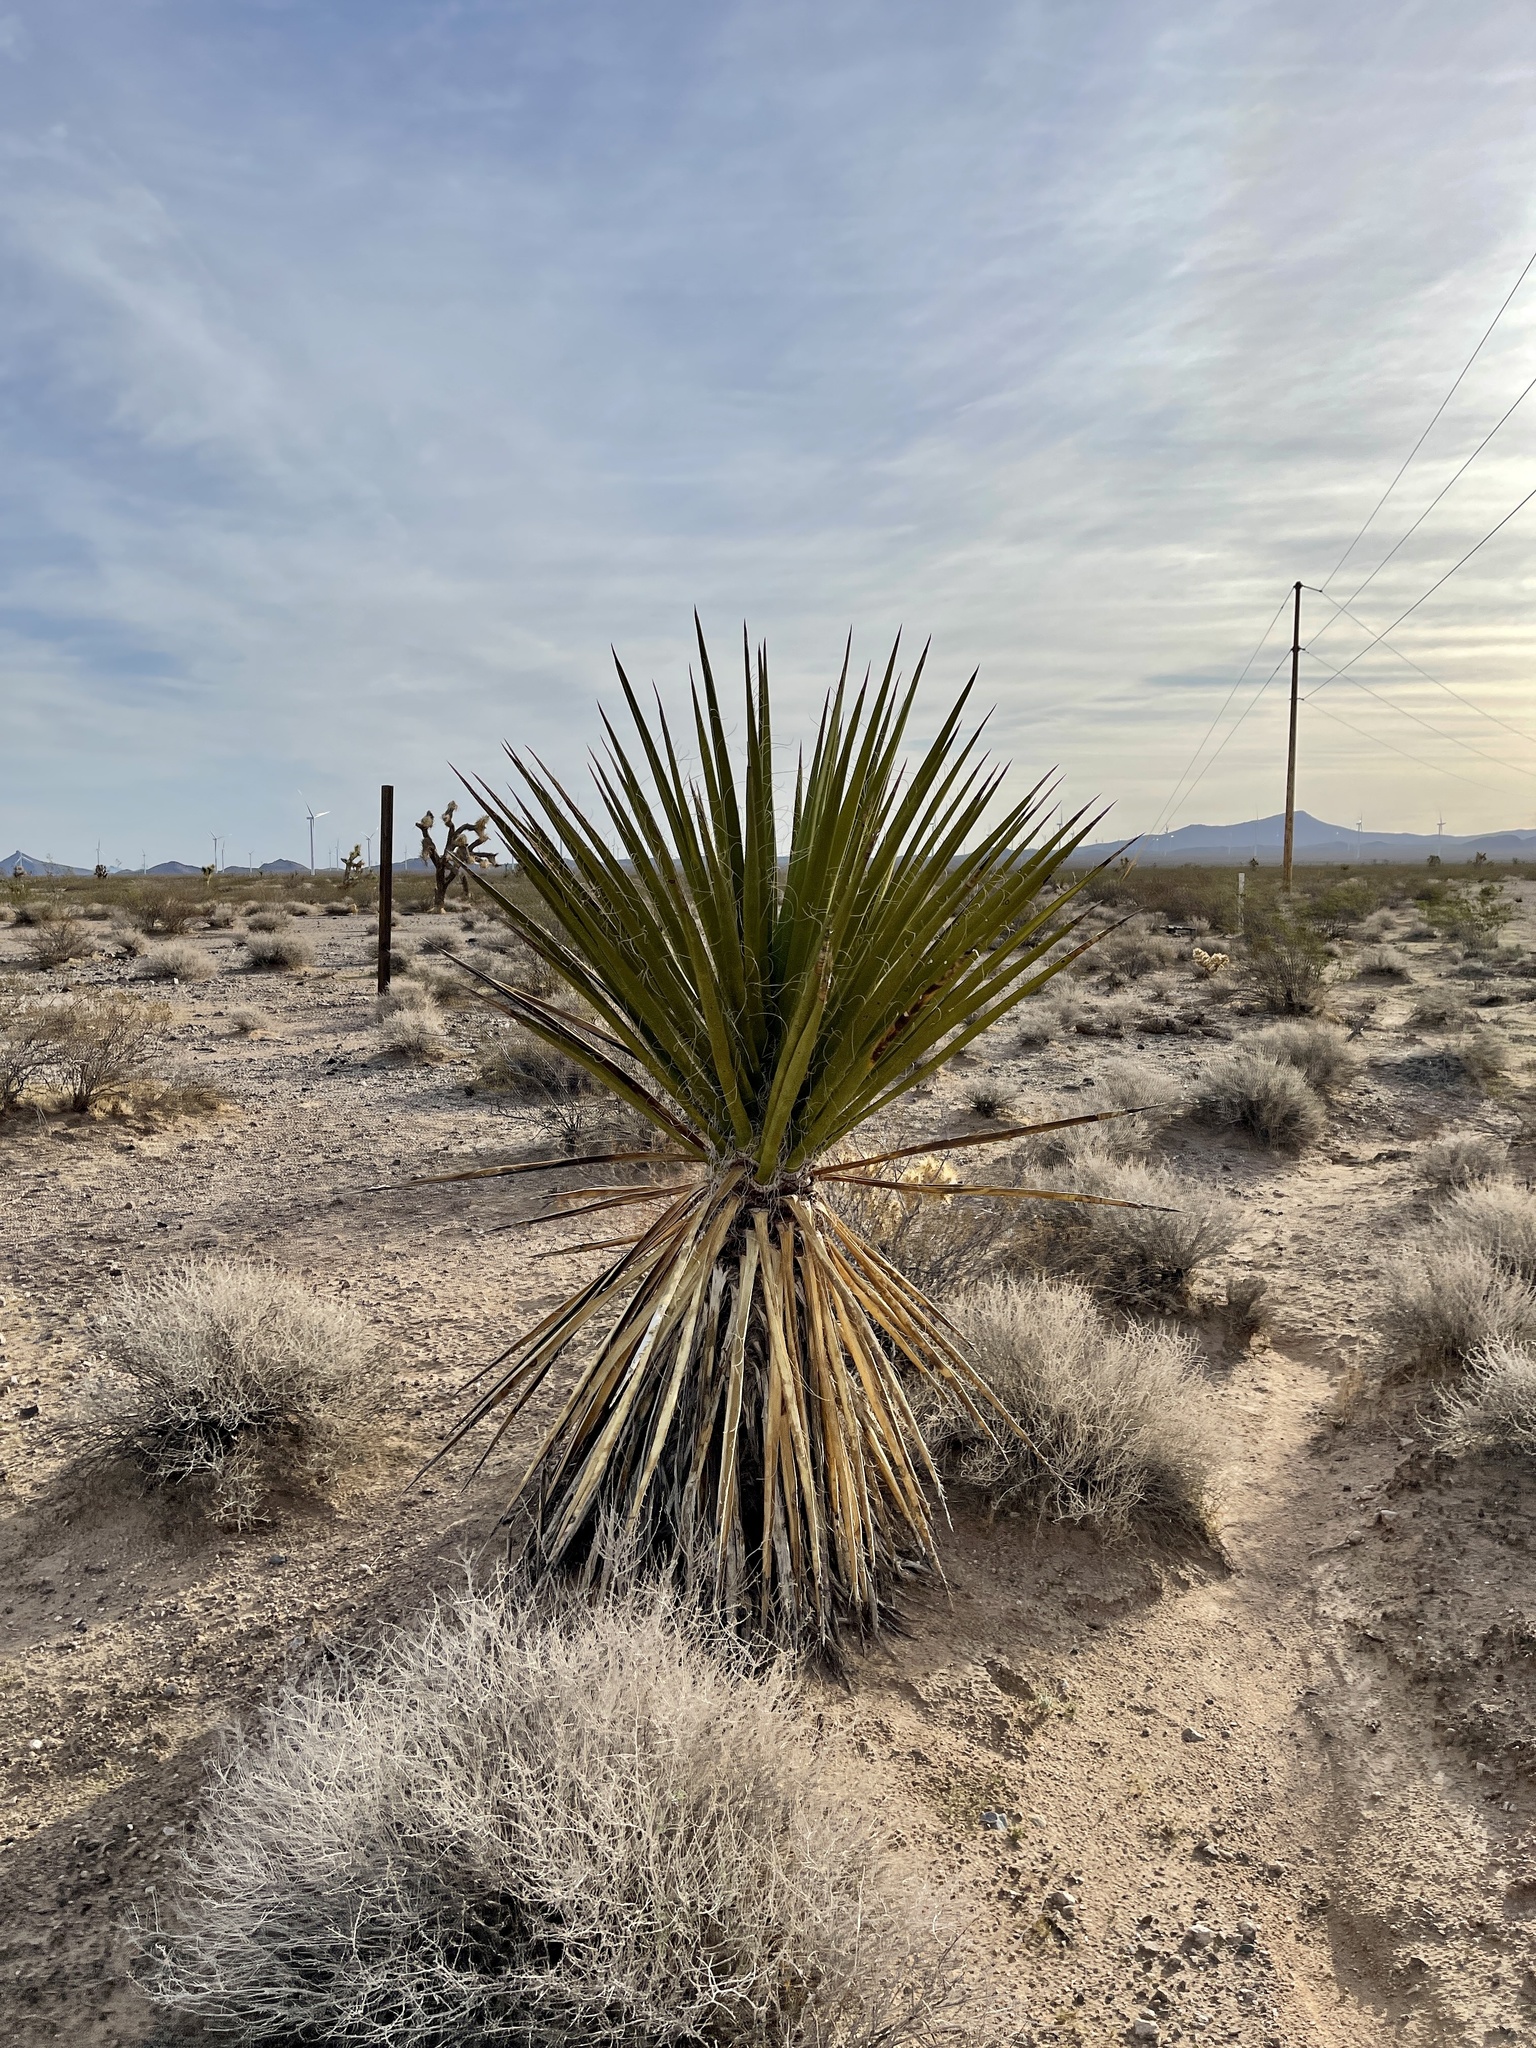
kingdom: Plantae
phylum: Tracheophyta
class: Liliopsida
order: Asparagales
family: Asparagaceae
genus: Yucca
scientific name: Yucca schidigera
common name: Mojave yucca
